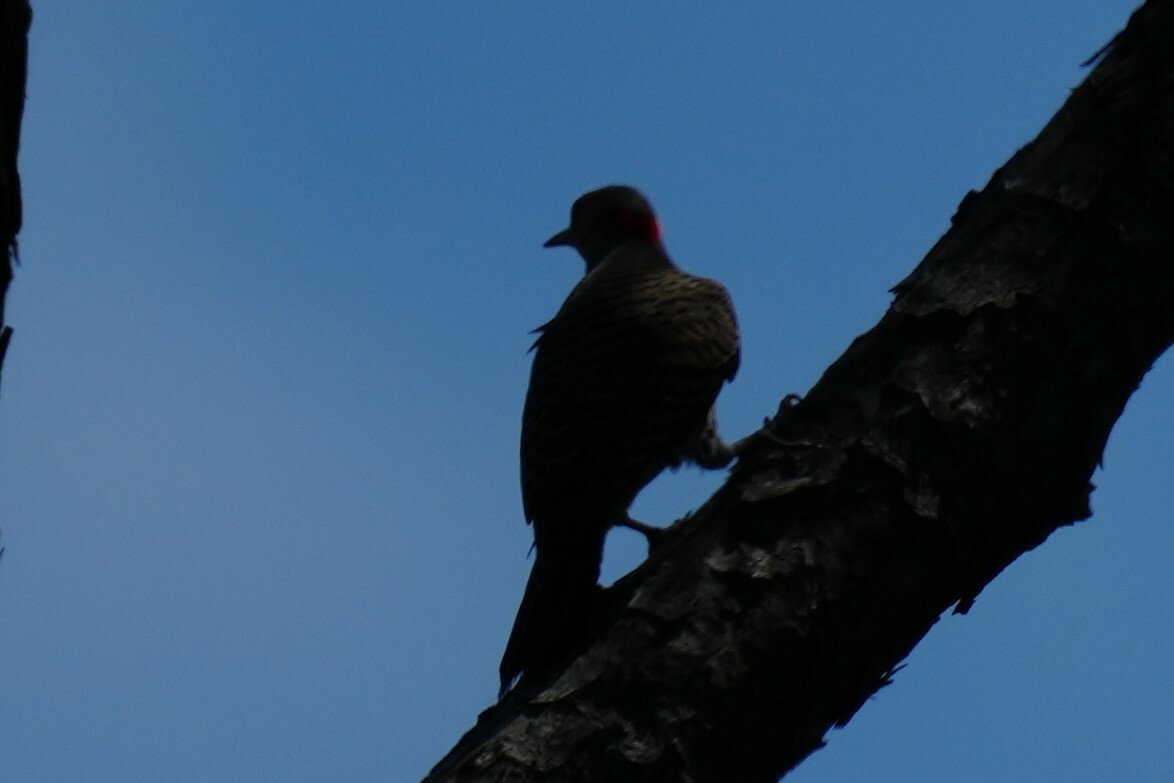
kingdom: Animalia
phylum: Chordata
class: Aves
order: Piciformes
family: Picidae
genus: Colaptes
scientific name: Colaptes auratus
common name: Northern flicker
